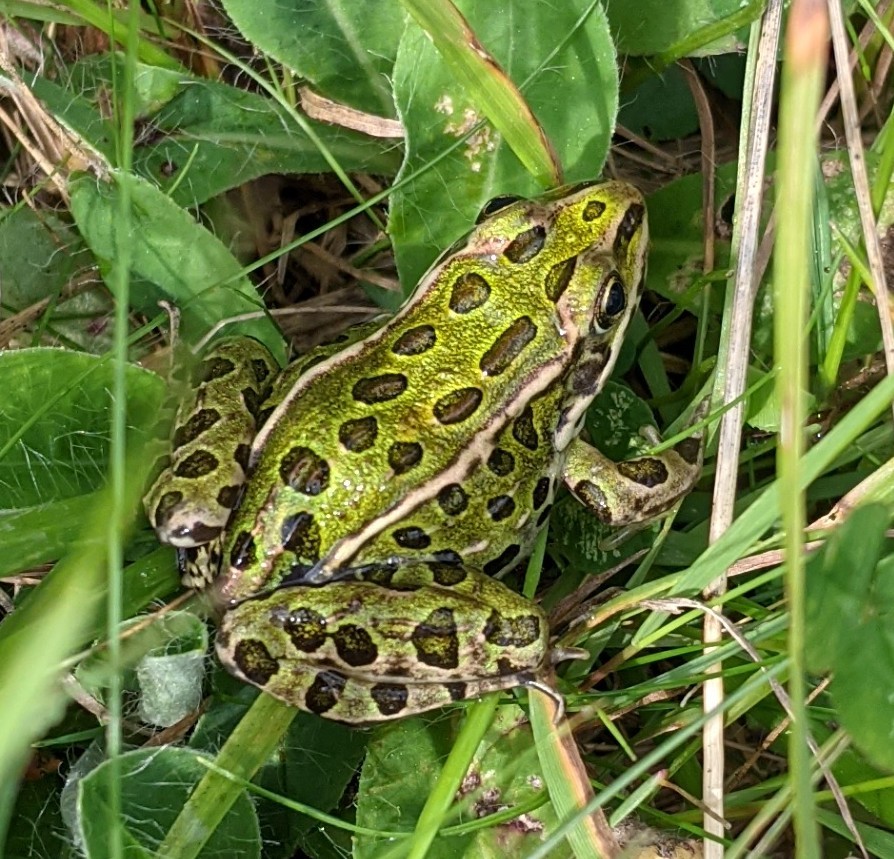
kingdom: Animalia
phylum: Chordata
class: Amphibia
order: Anura
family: Ranidae
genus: Lithobates
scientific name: Lithobates pipiens
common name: Northern leopard frog
